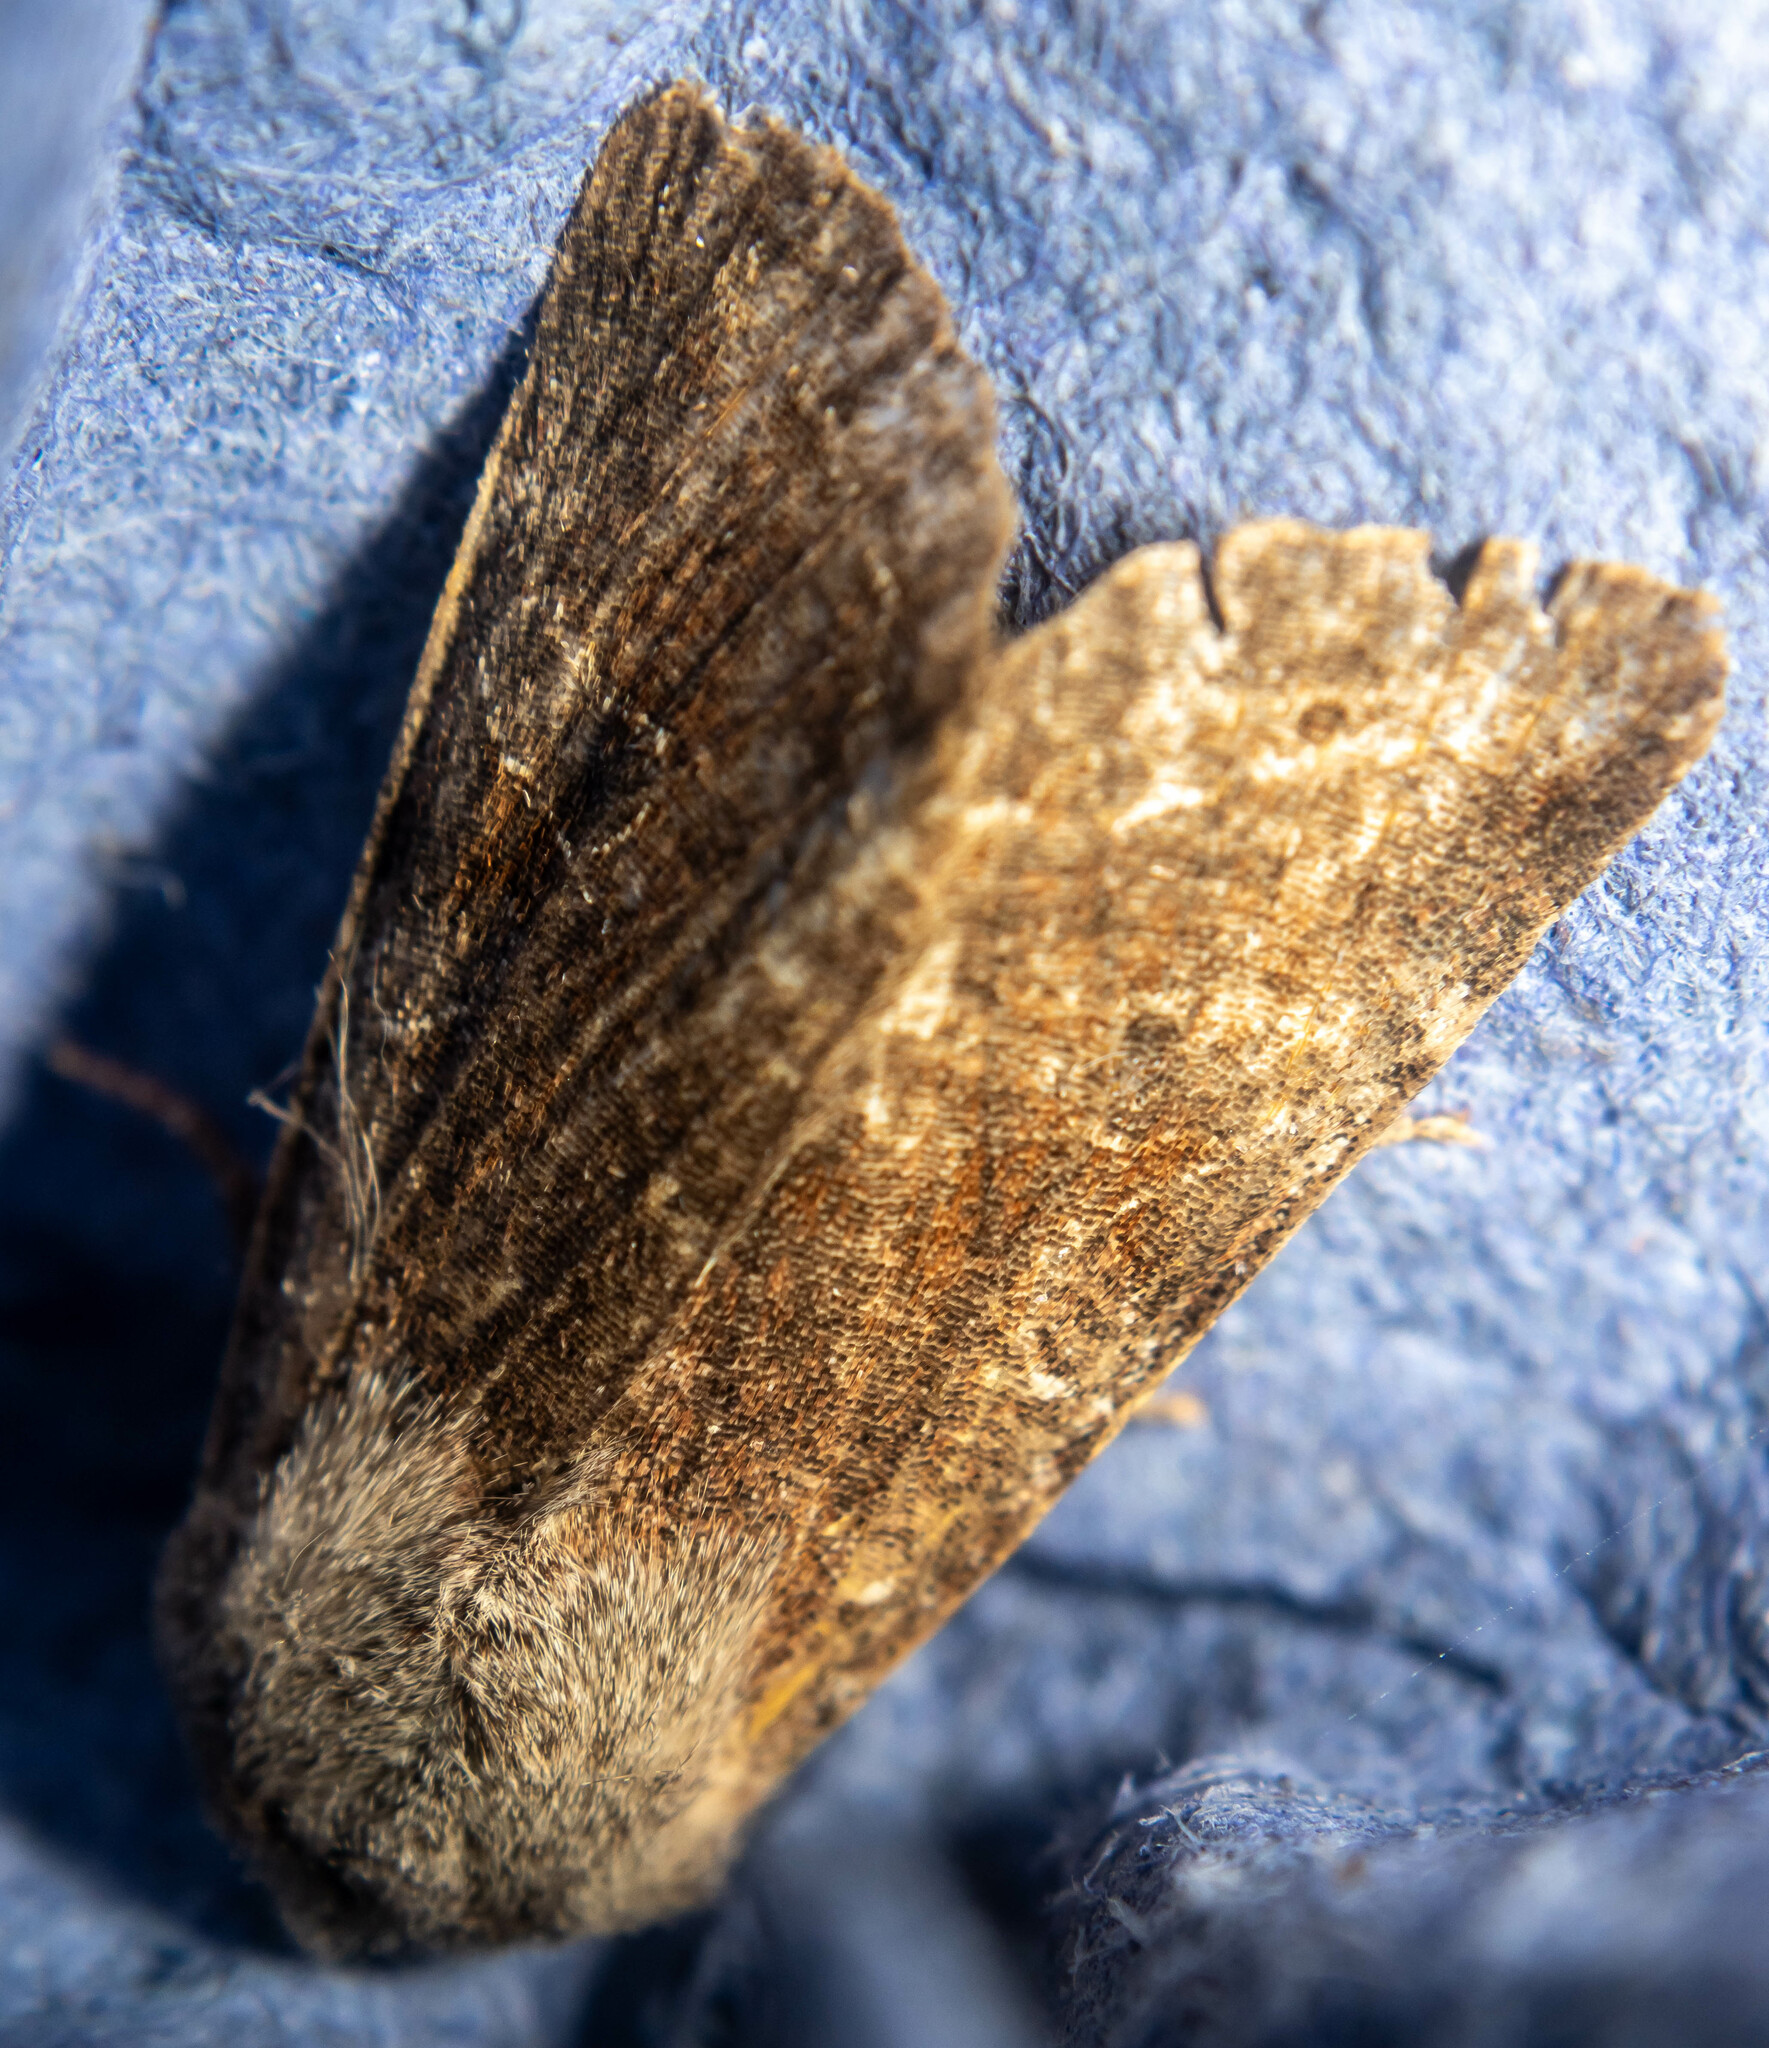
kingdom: Animalia
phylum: Arthropoda
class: Insecta
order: Lepidoptera
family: Noctuidae
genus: Orthosia
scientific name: Orthosia incerta
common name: Clouded drab
